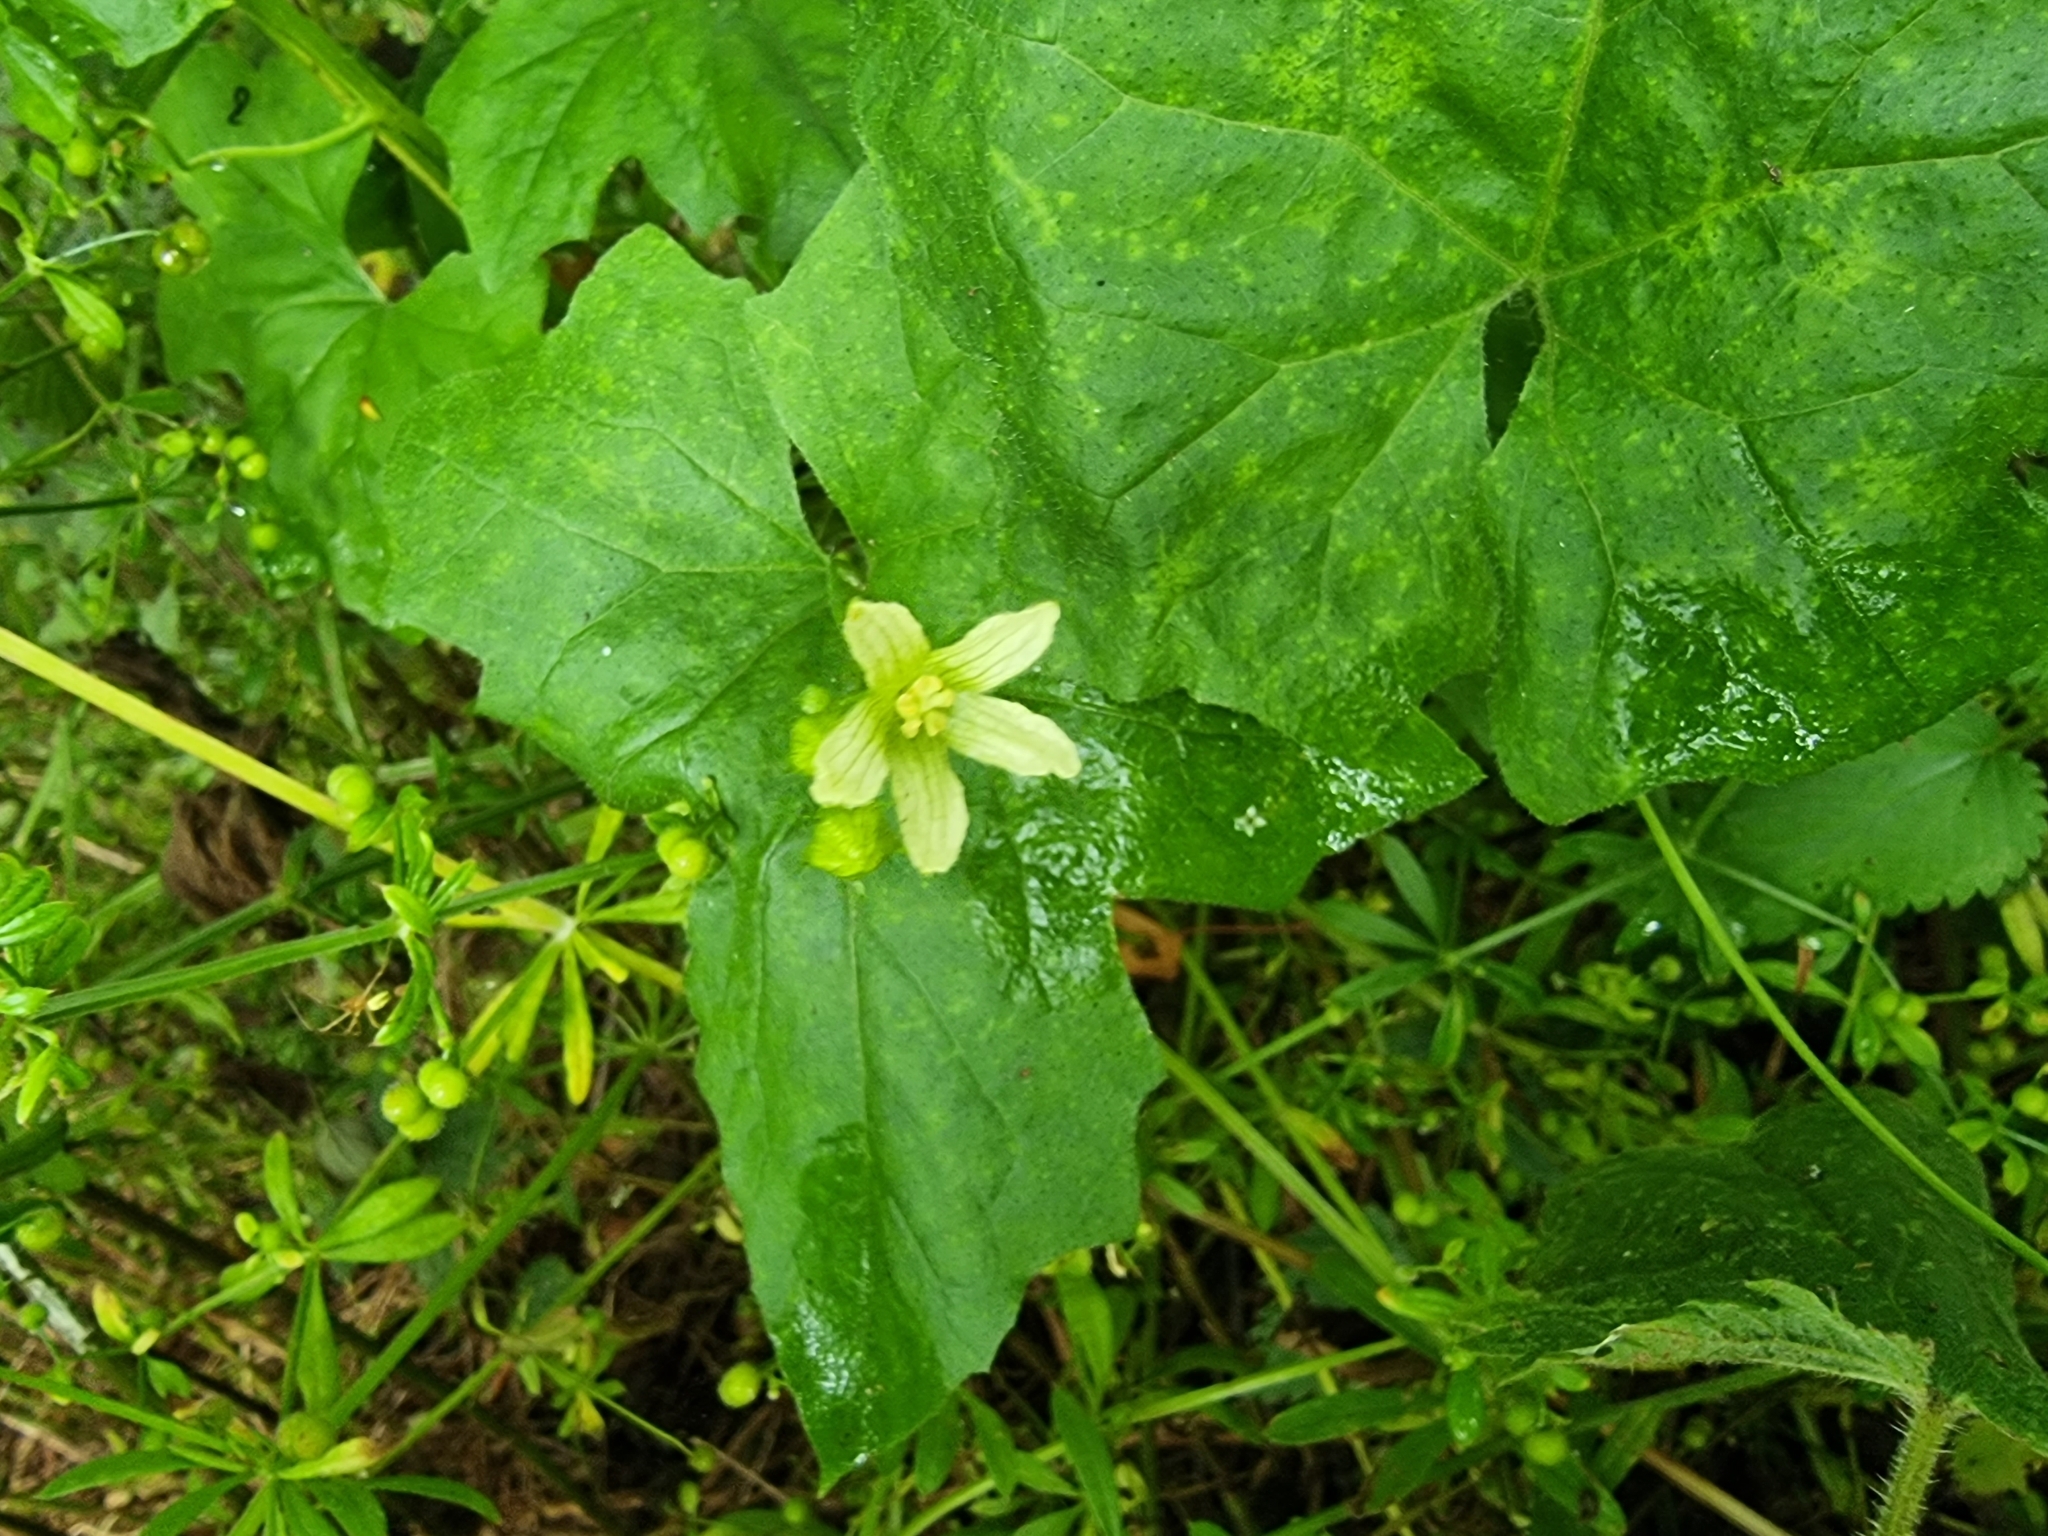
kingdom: Plantae
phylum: Tracheophyta
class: Magnoliopsida
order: Cucurbitales
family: Cucurbitaceae
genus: Bryonia
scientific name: Bryonia cretica
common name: Cretan bryony
